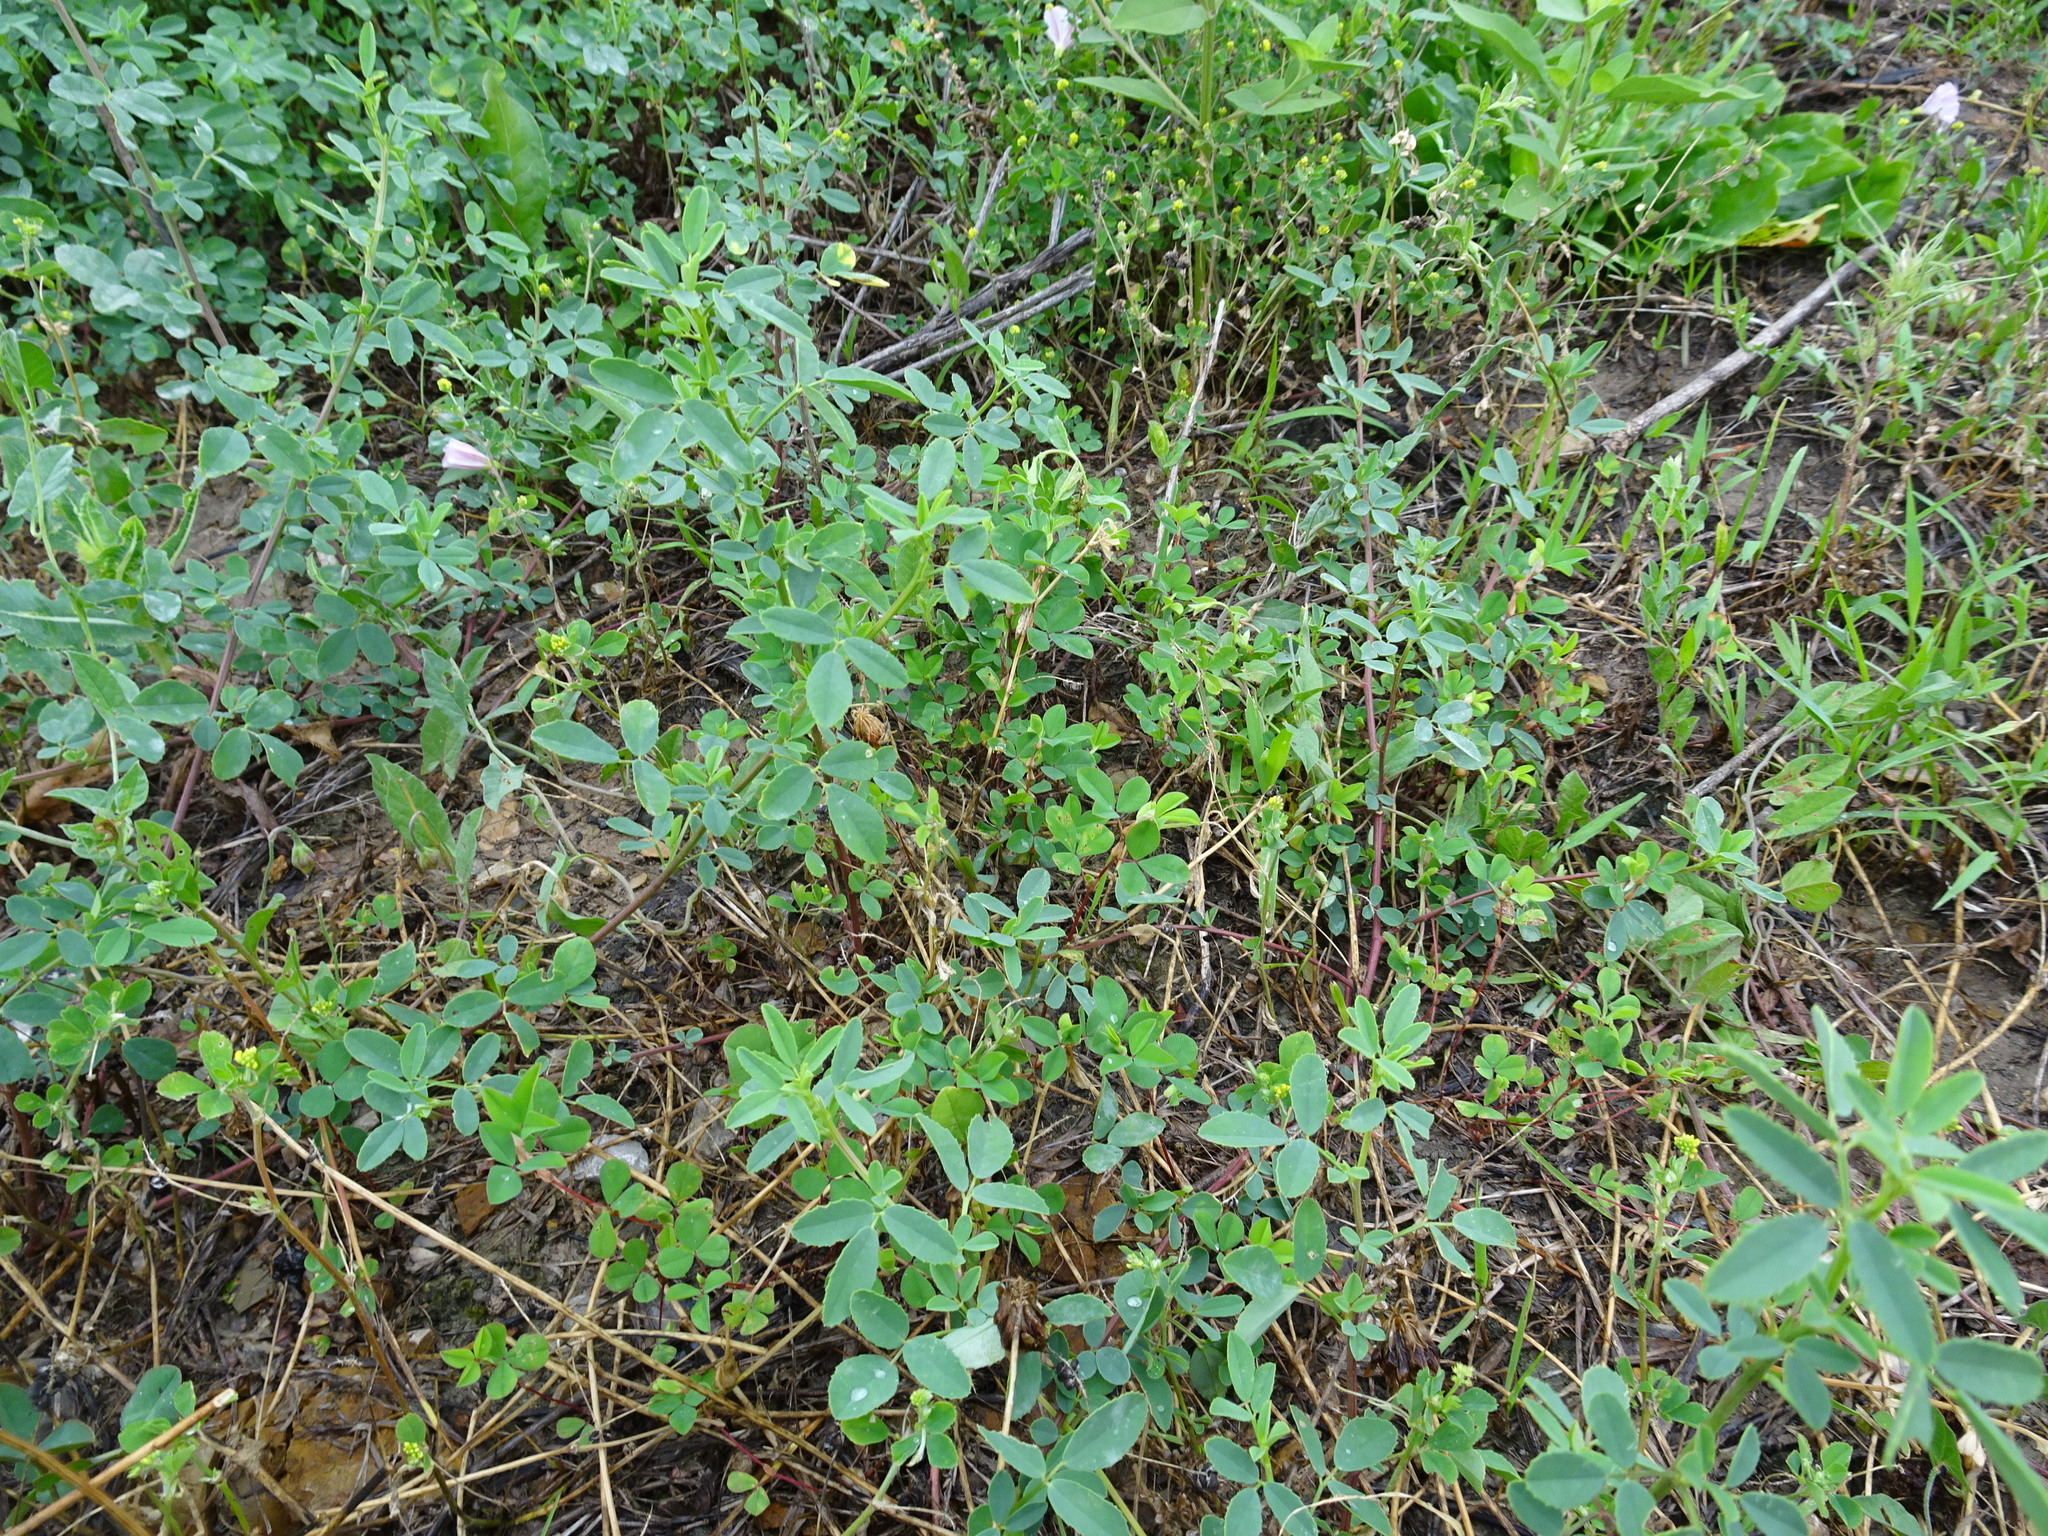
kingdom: Plantae
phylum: Tracheophyta
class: Magnoliopsida
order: Fabales
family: Fabaceae
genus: Medicago
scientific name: Medicago lupulina
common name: Black medick
